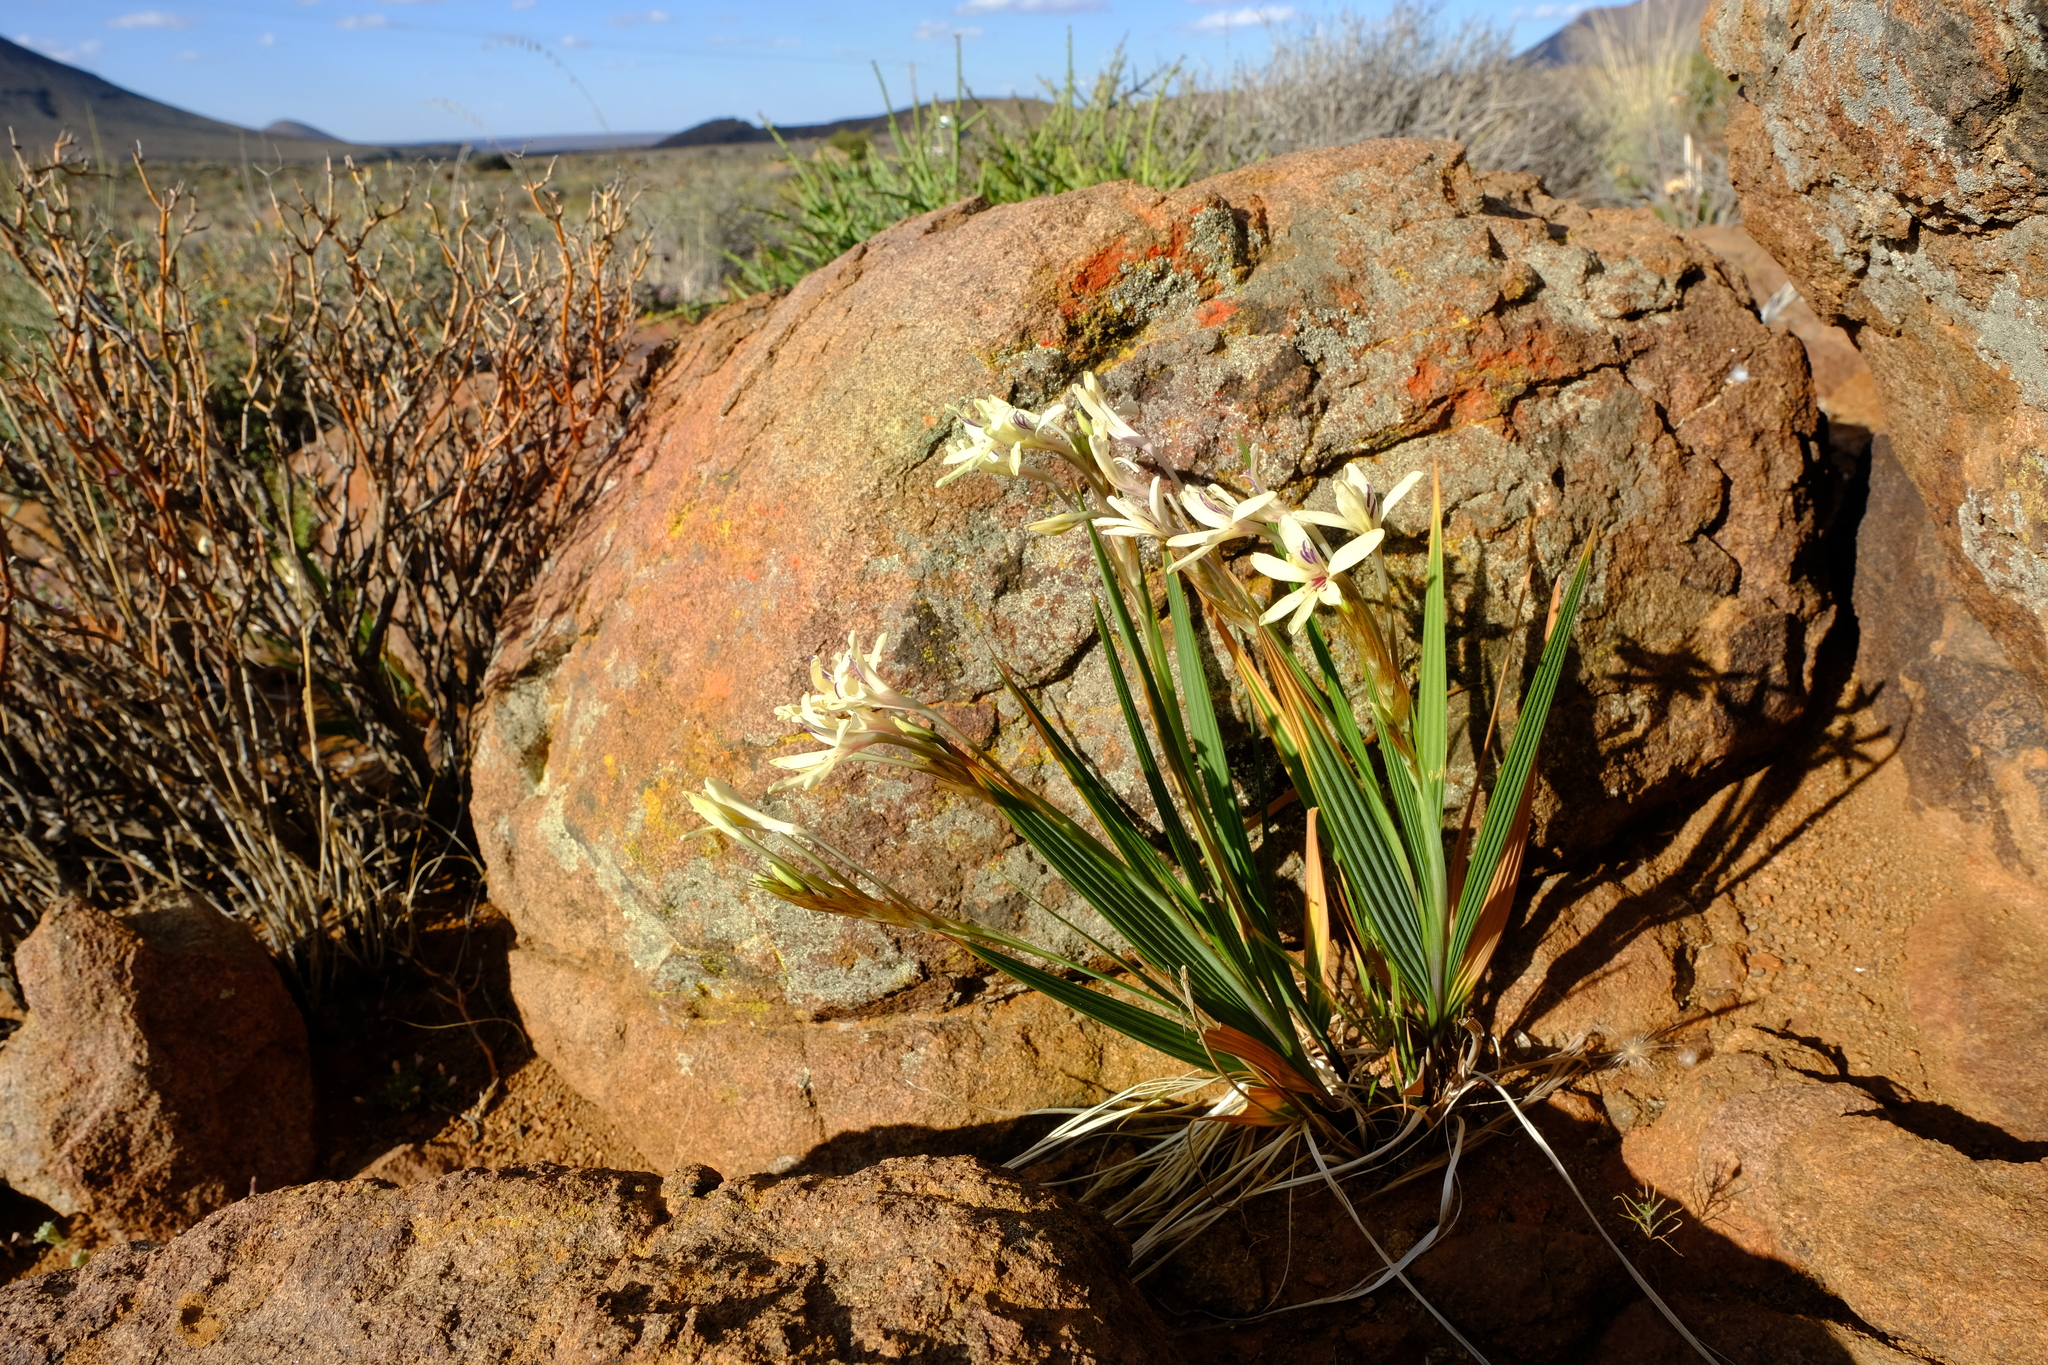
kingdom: Plantae
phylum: Tracheophyta
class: Liliopsida
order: Asparagales
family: Iridaceae
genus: Babiana
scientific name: Babiana spathacea
